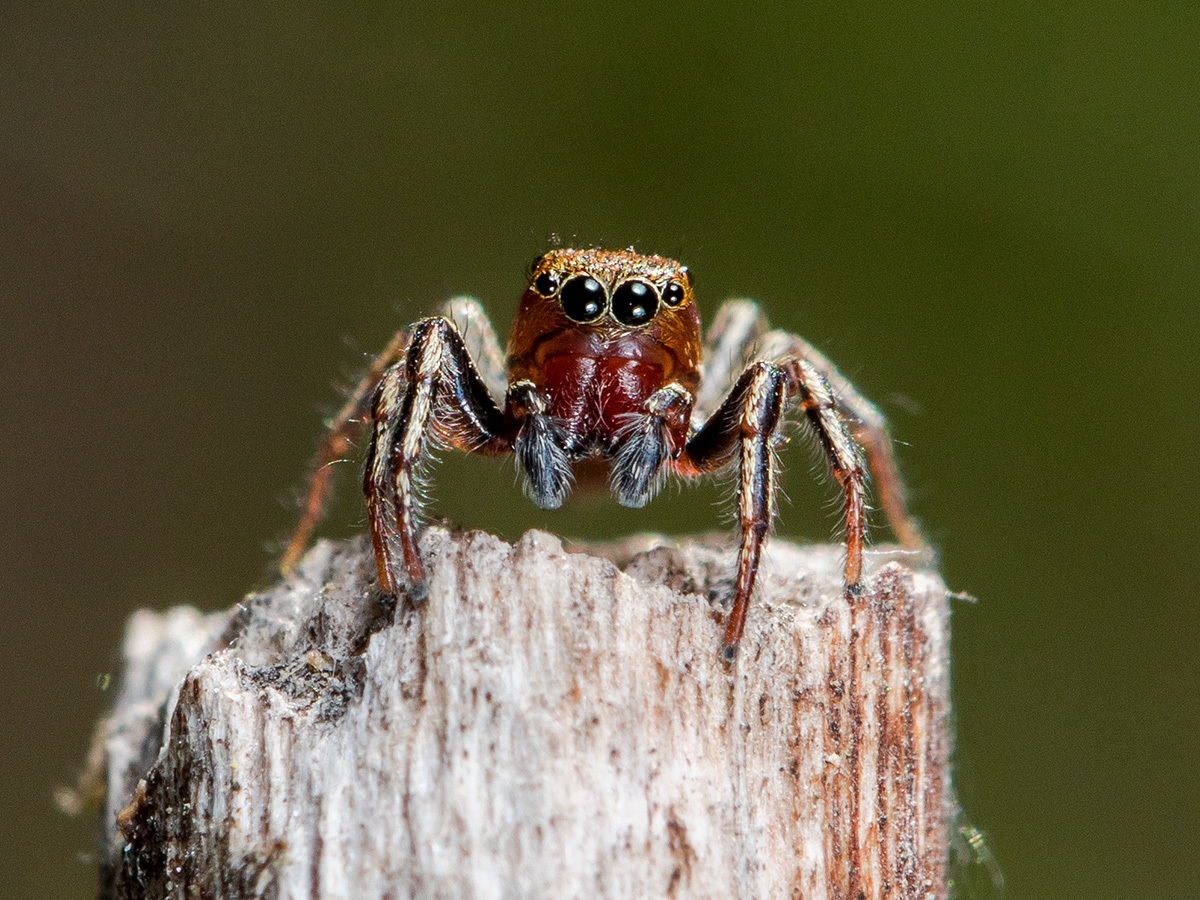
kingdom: Animalia
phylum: Arthropoda
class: Arachnida
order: Araneae
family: Salticidae
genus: Heliophanus
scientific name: Heliophanus patagiatus
